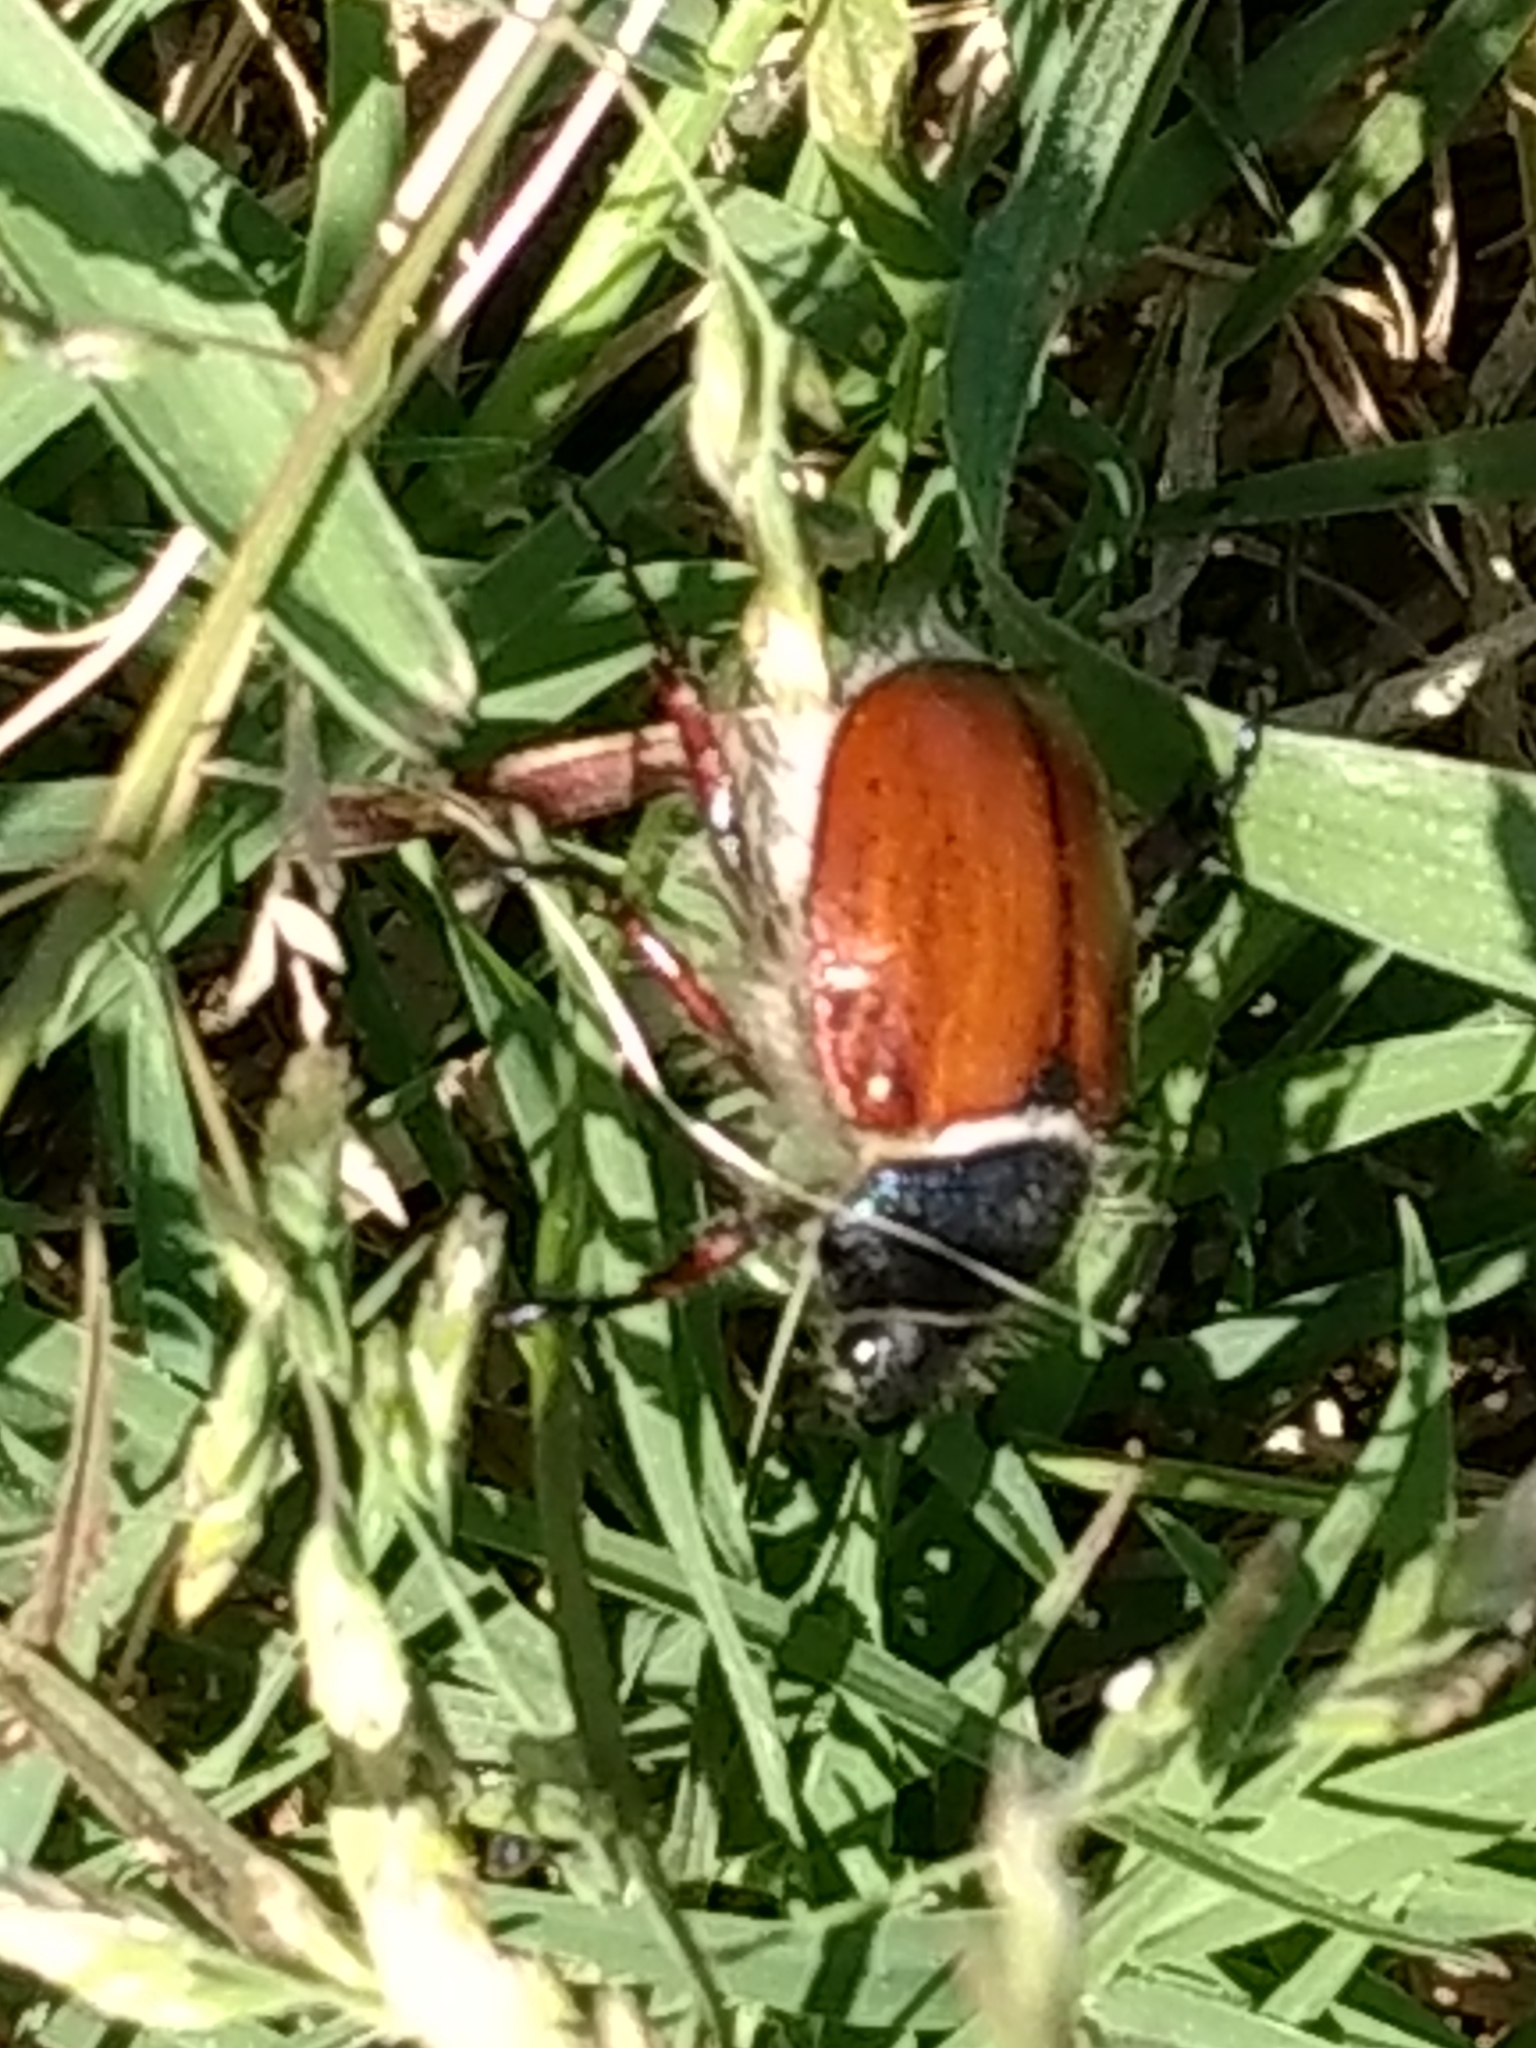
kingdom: Animalia
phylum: Arthropoda
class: Insecta
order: Coleoptera
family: Scarabaeidae
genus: Paracotalpa
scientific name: Paracotalpa ursina
